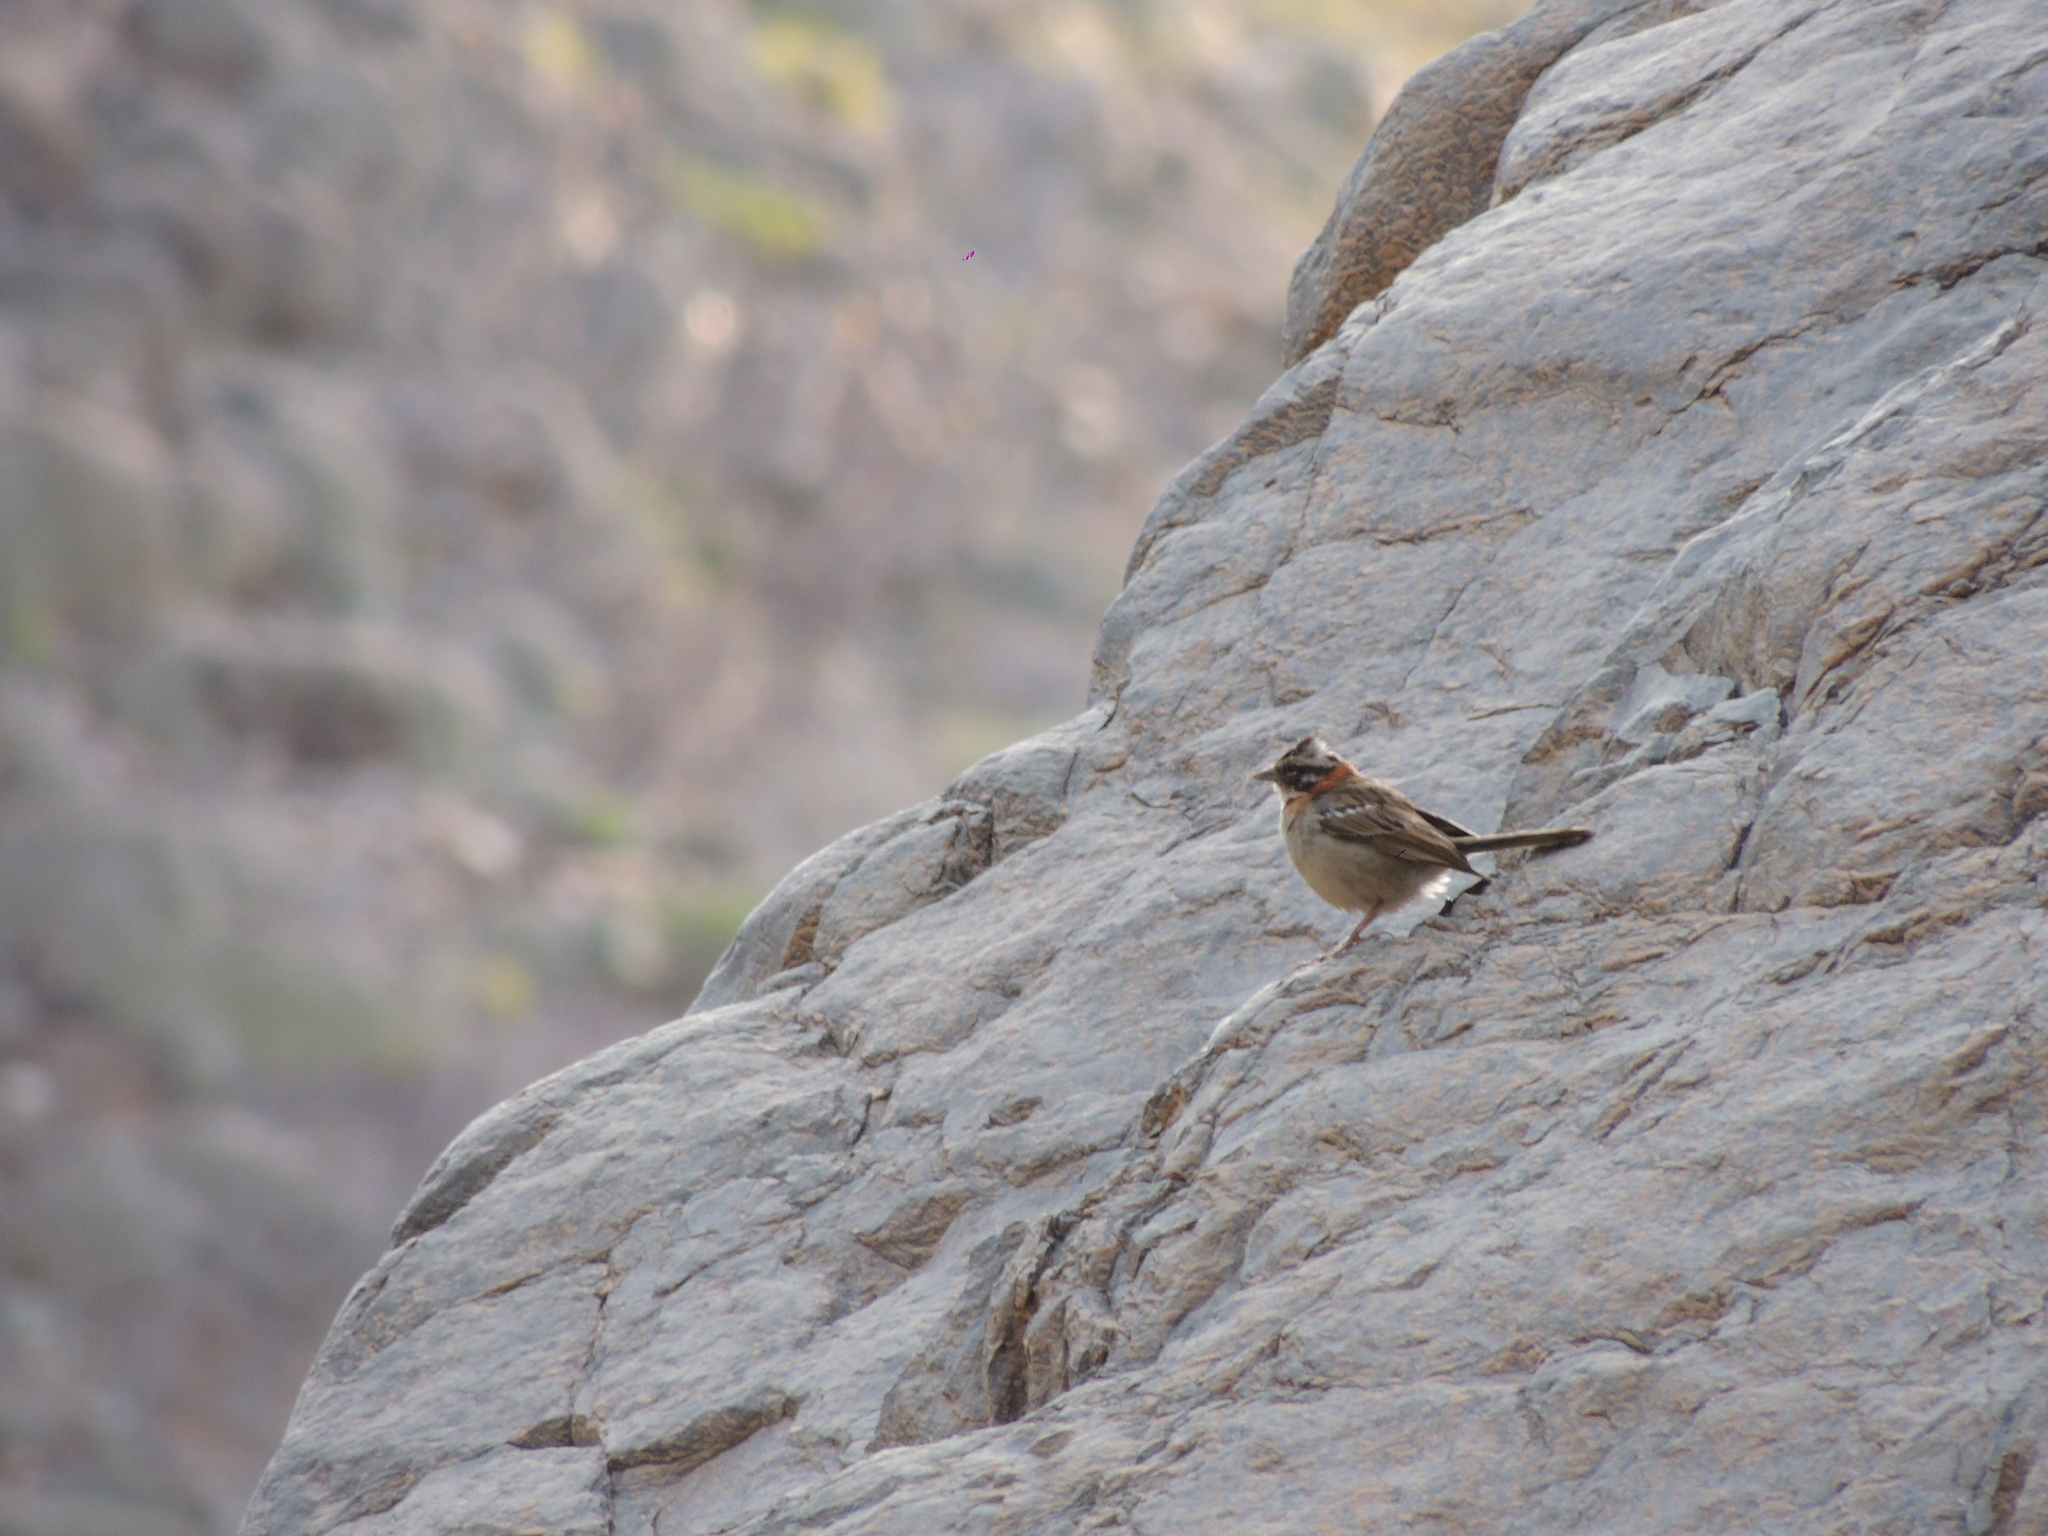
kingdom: Animalia
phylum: Chordata
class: Aves
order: Passeriformes
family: Passerellidae
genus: Zonotrichia
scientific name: Zonotrichia capensis
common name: Rufous-collared sparrow
